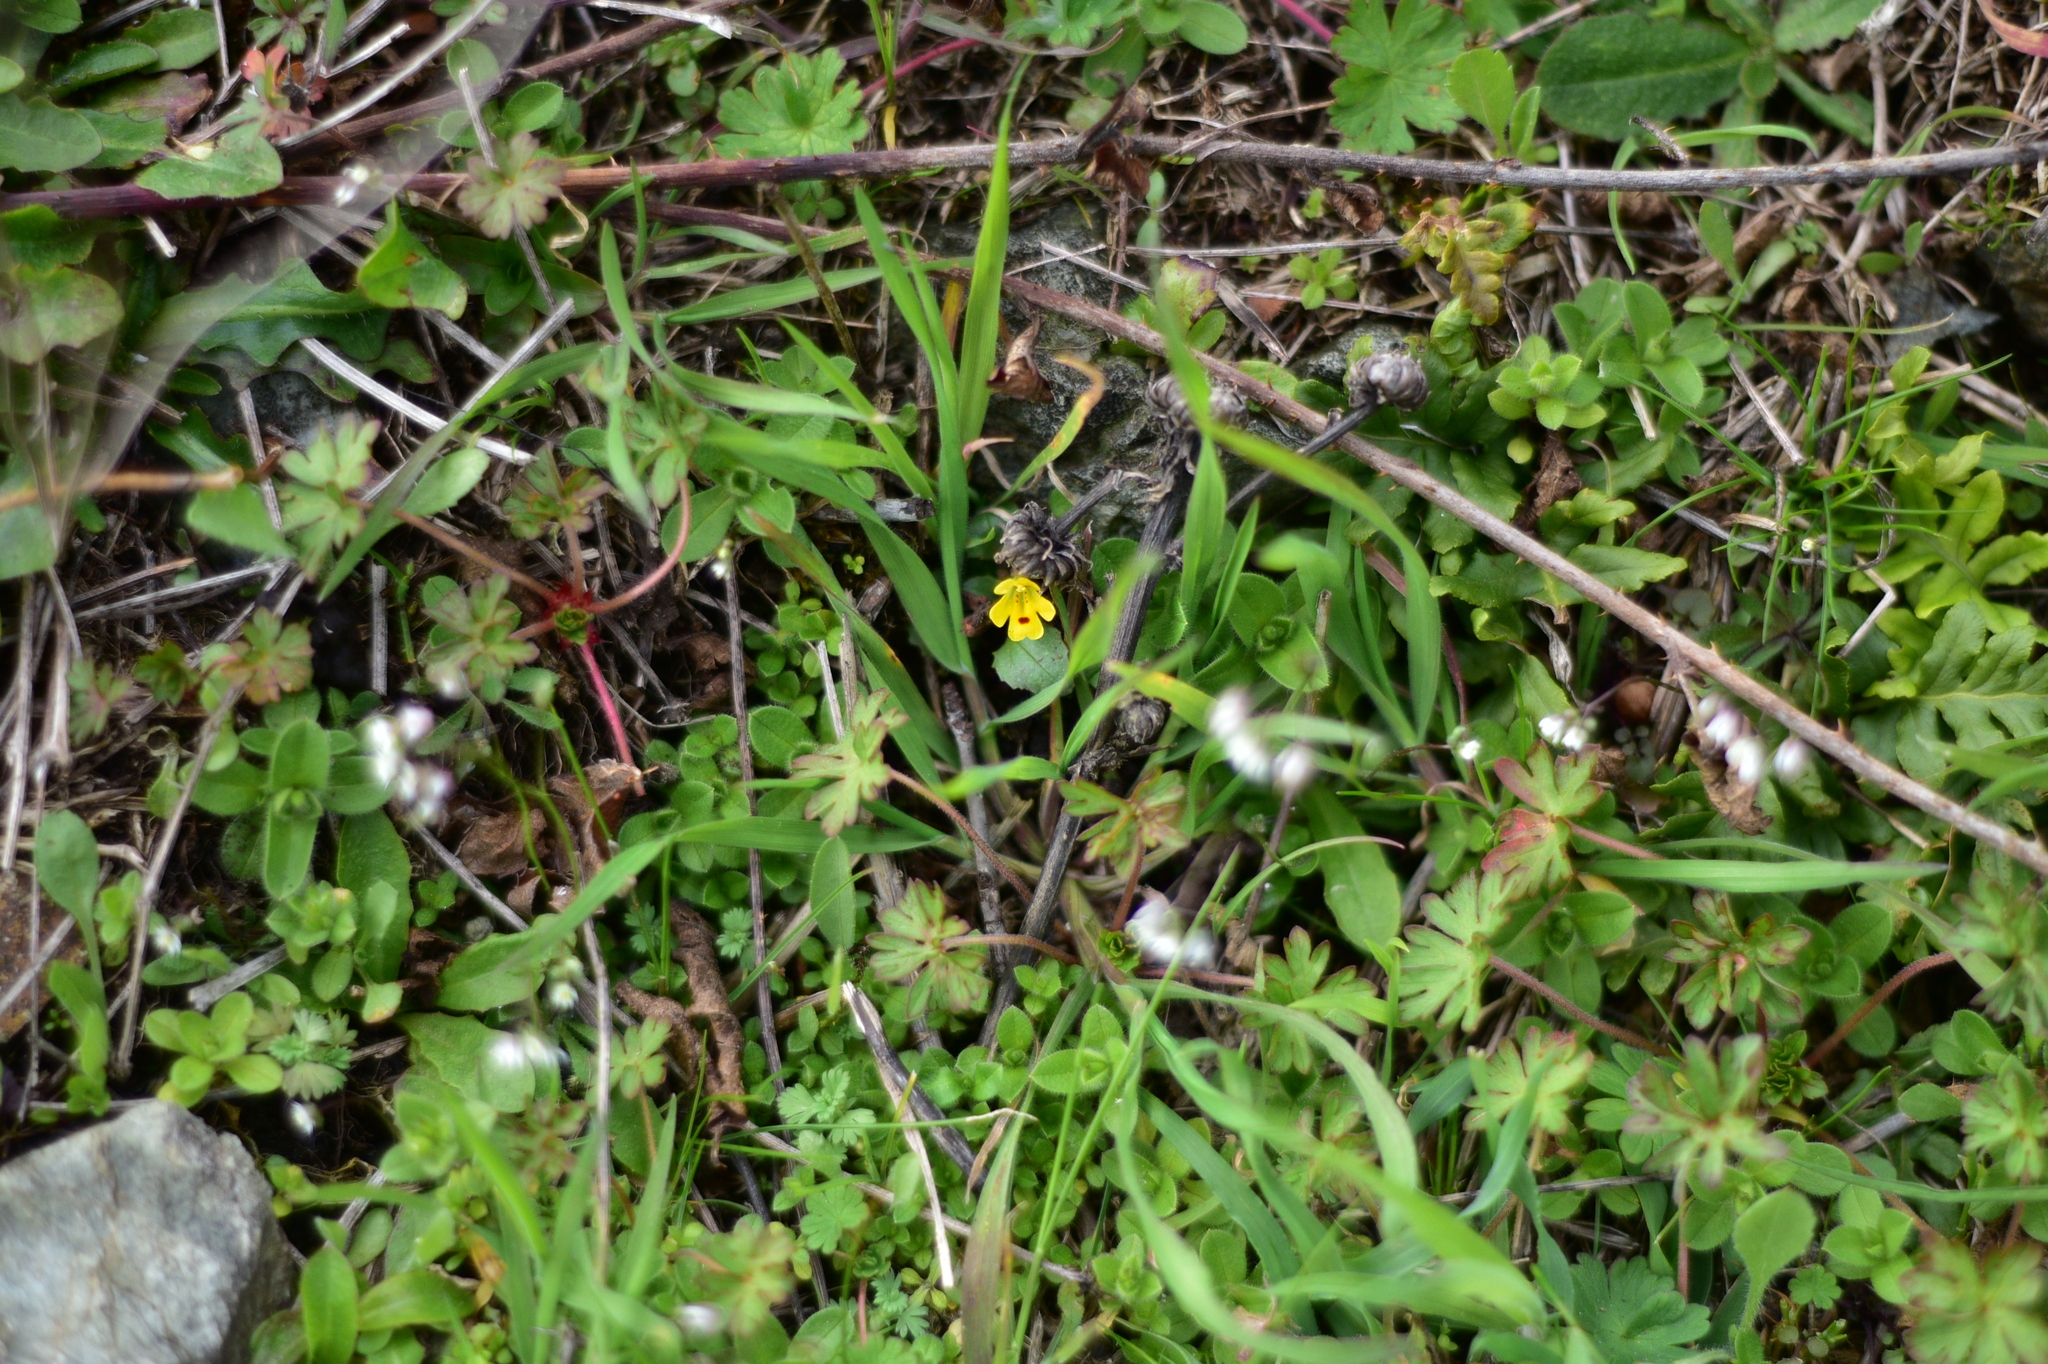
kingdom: Plantae
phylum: Tracheophyta
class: Magnoliopsida
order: Lamiales
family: Phrymaceae
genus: Erythranthe
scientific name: Erythranthe alsinoides
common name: Chickweed monkeyflower
